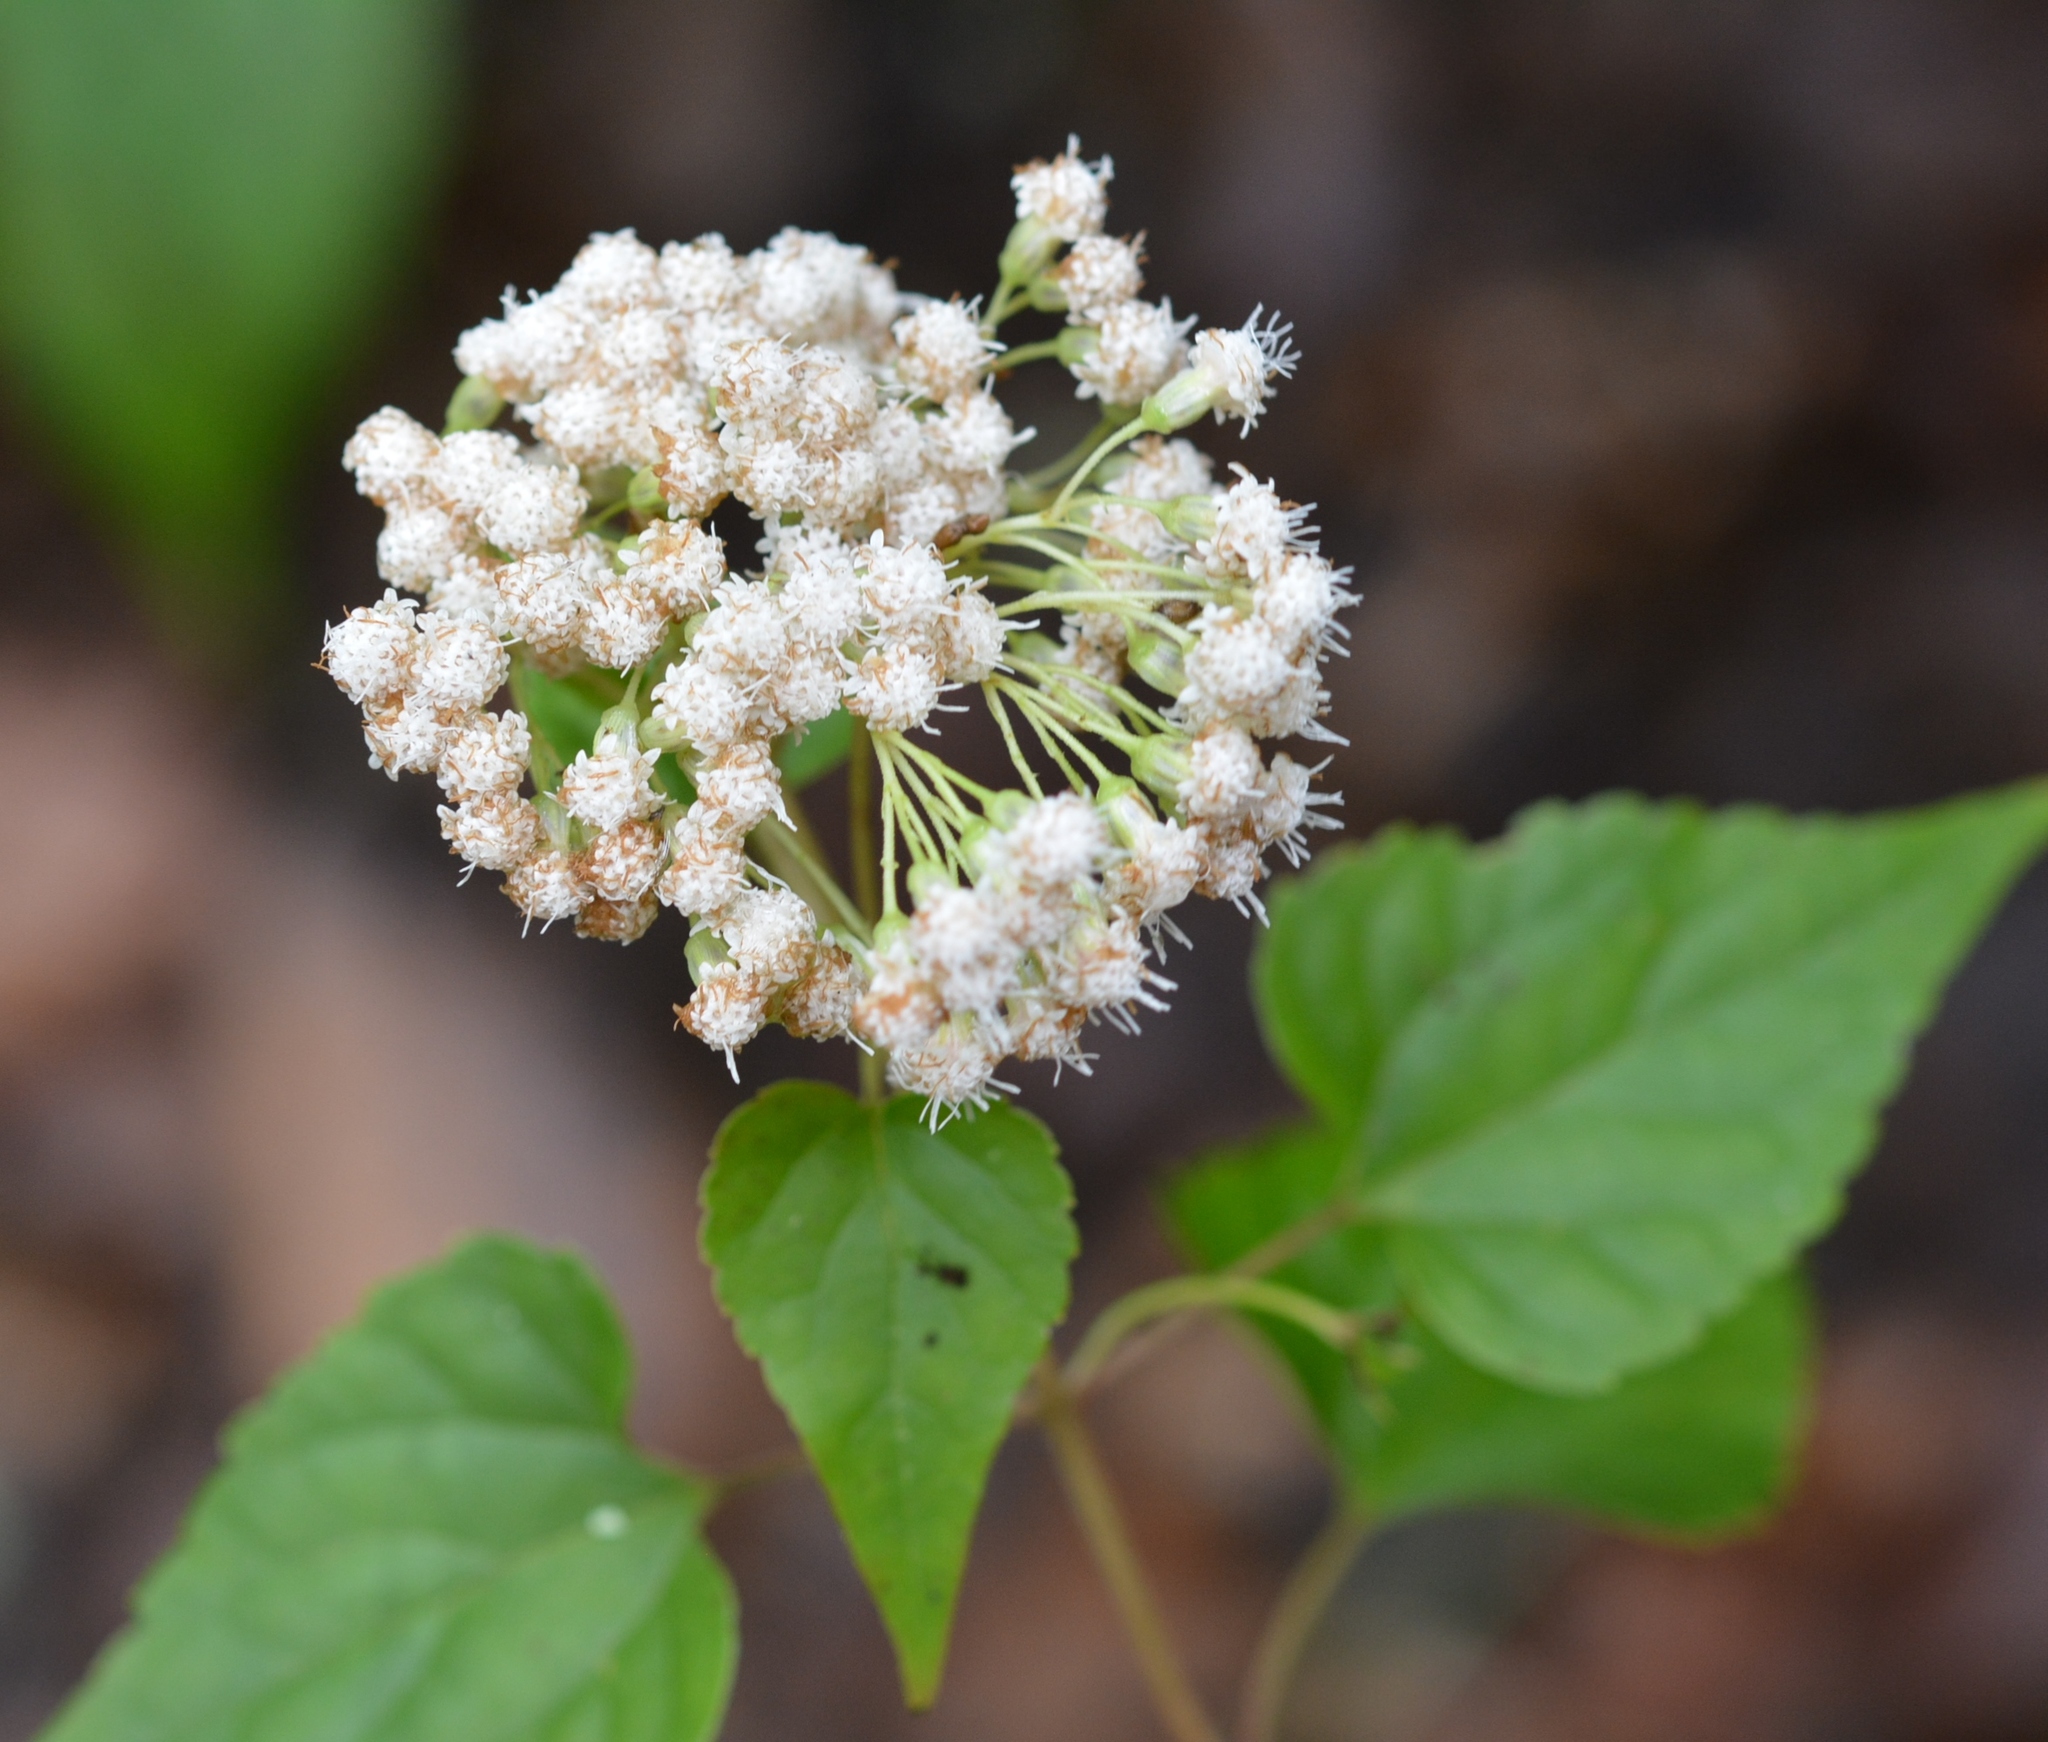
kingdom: Plantae
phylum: Tracheophyta
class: Magnoliopsida
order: Asterales
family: Asteraceae
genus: Ageratina
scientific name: Ageratina mairetiana
